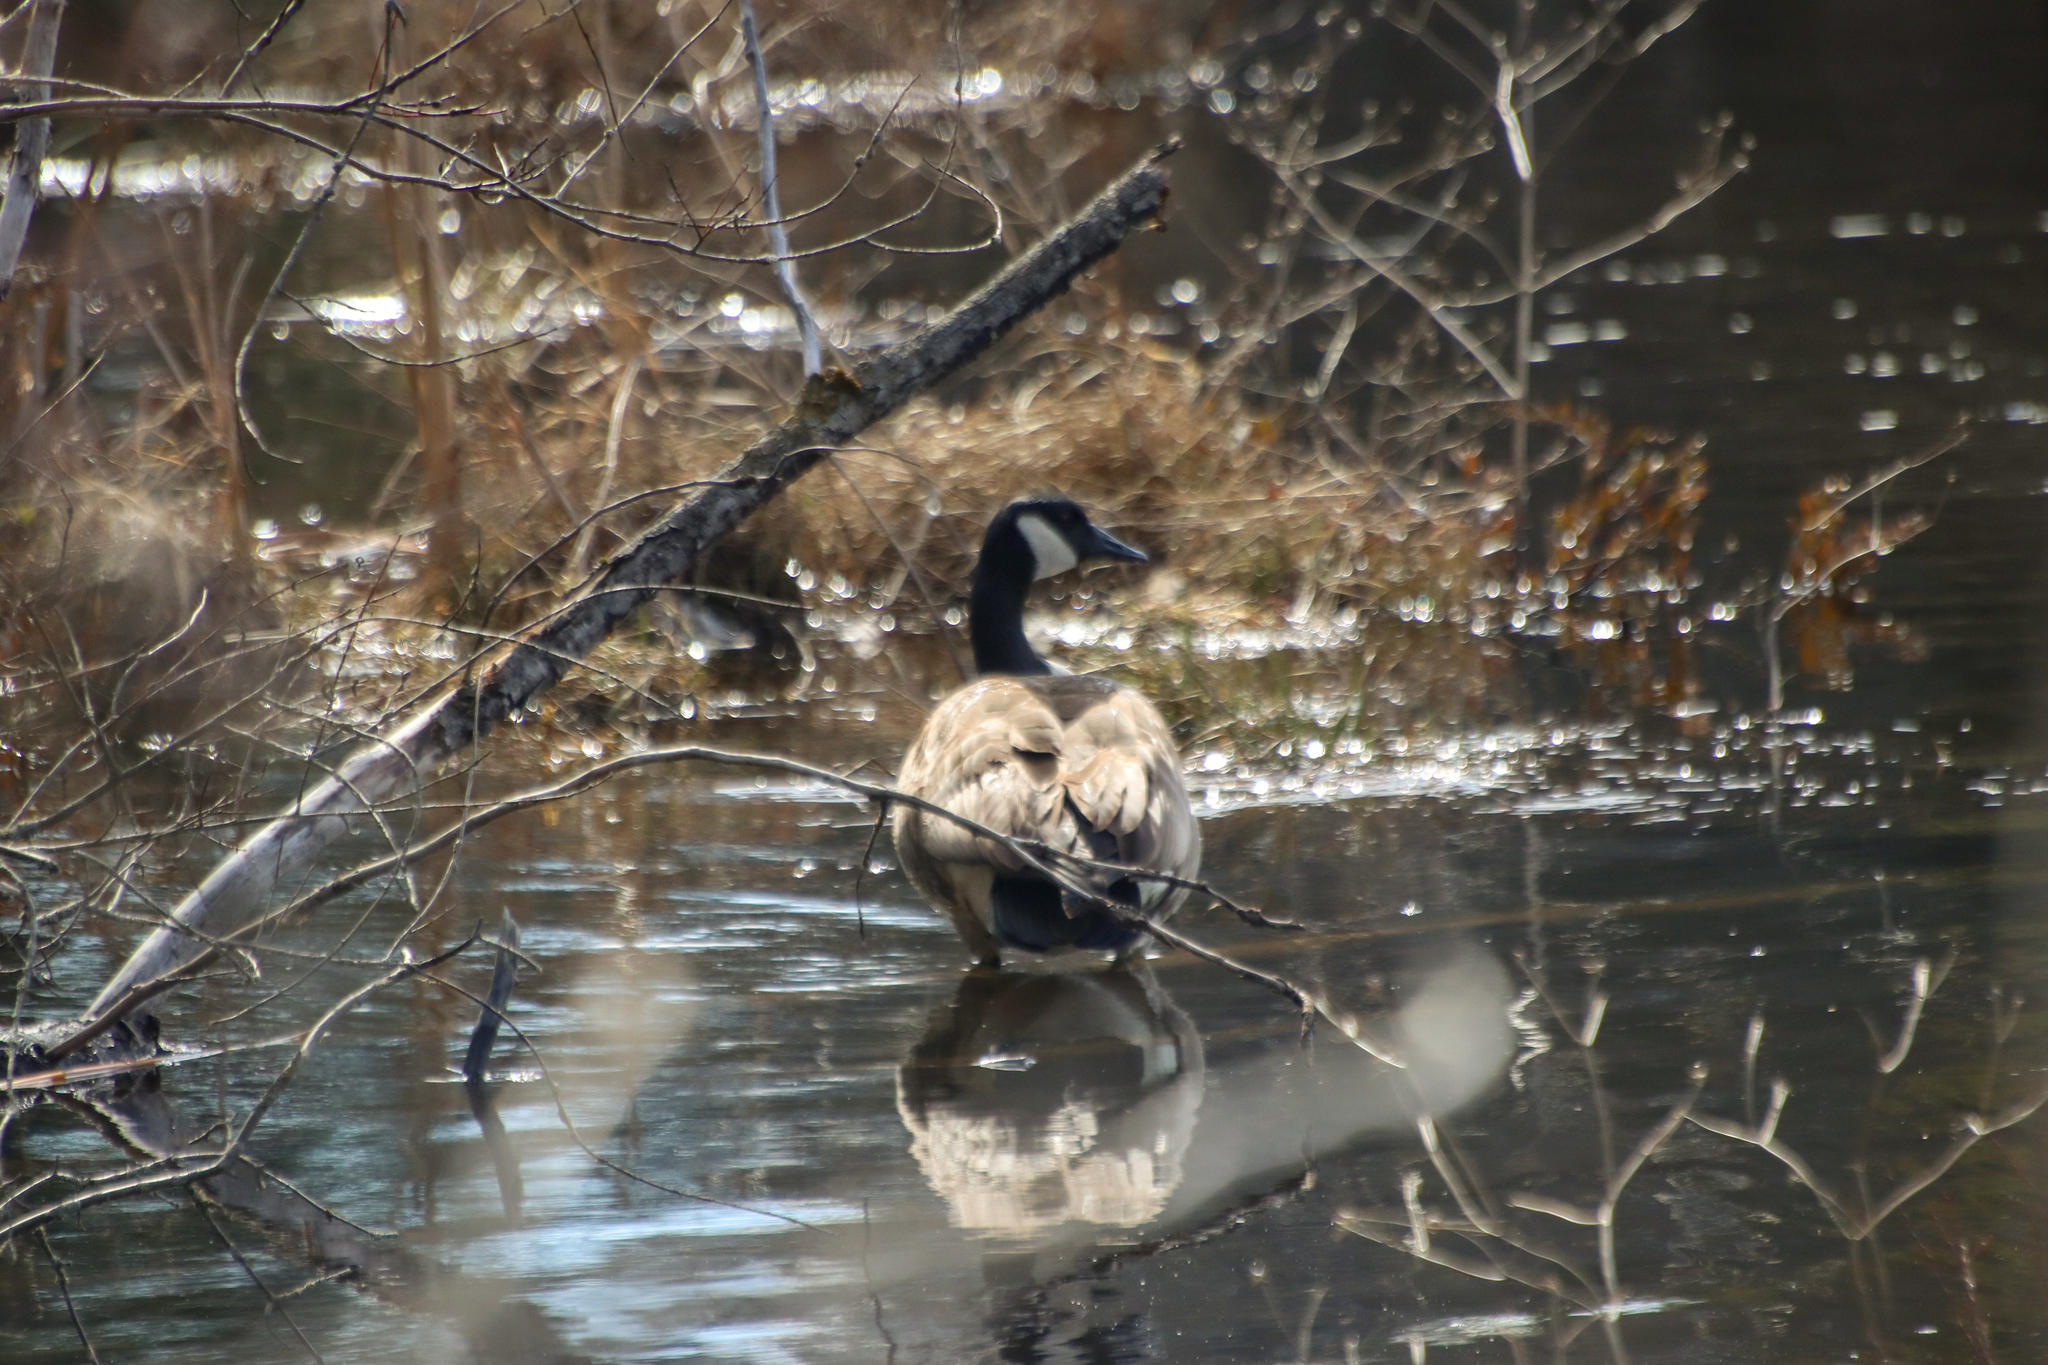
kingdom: Animalia
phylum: Chordata
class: Aves
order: Anseriformes
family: Anatidae
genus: Branta
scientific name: Branta canadensis
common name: Canada goose
